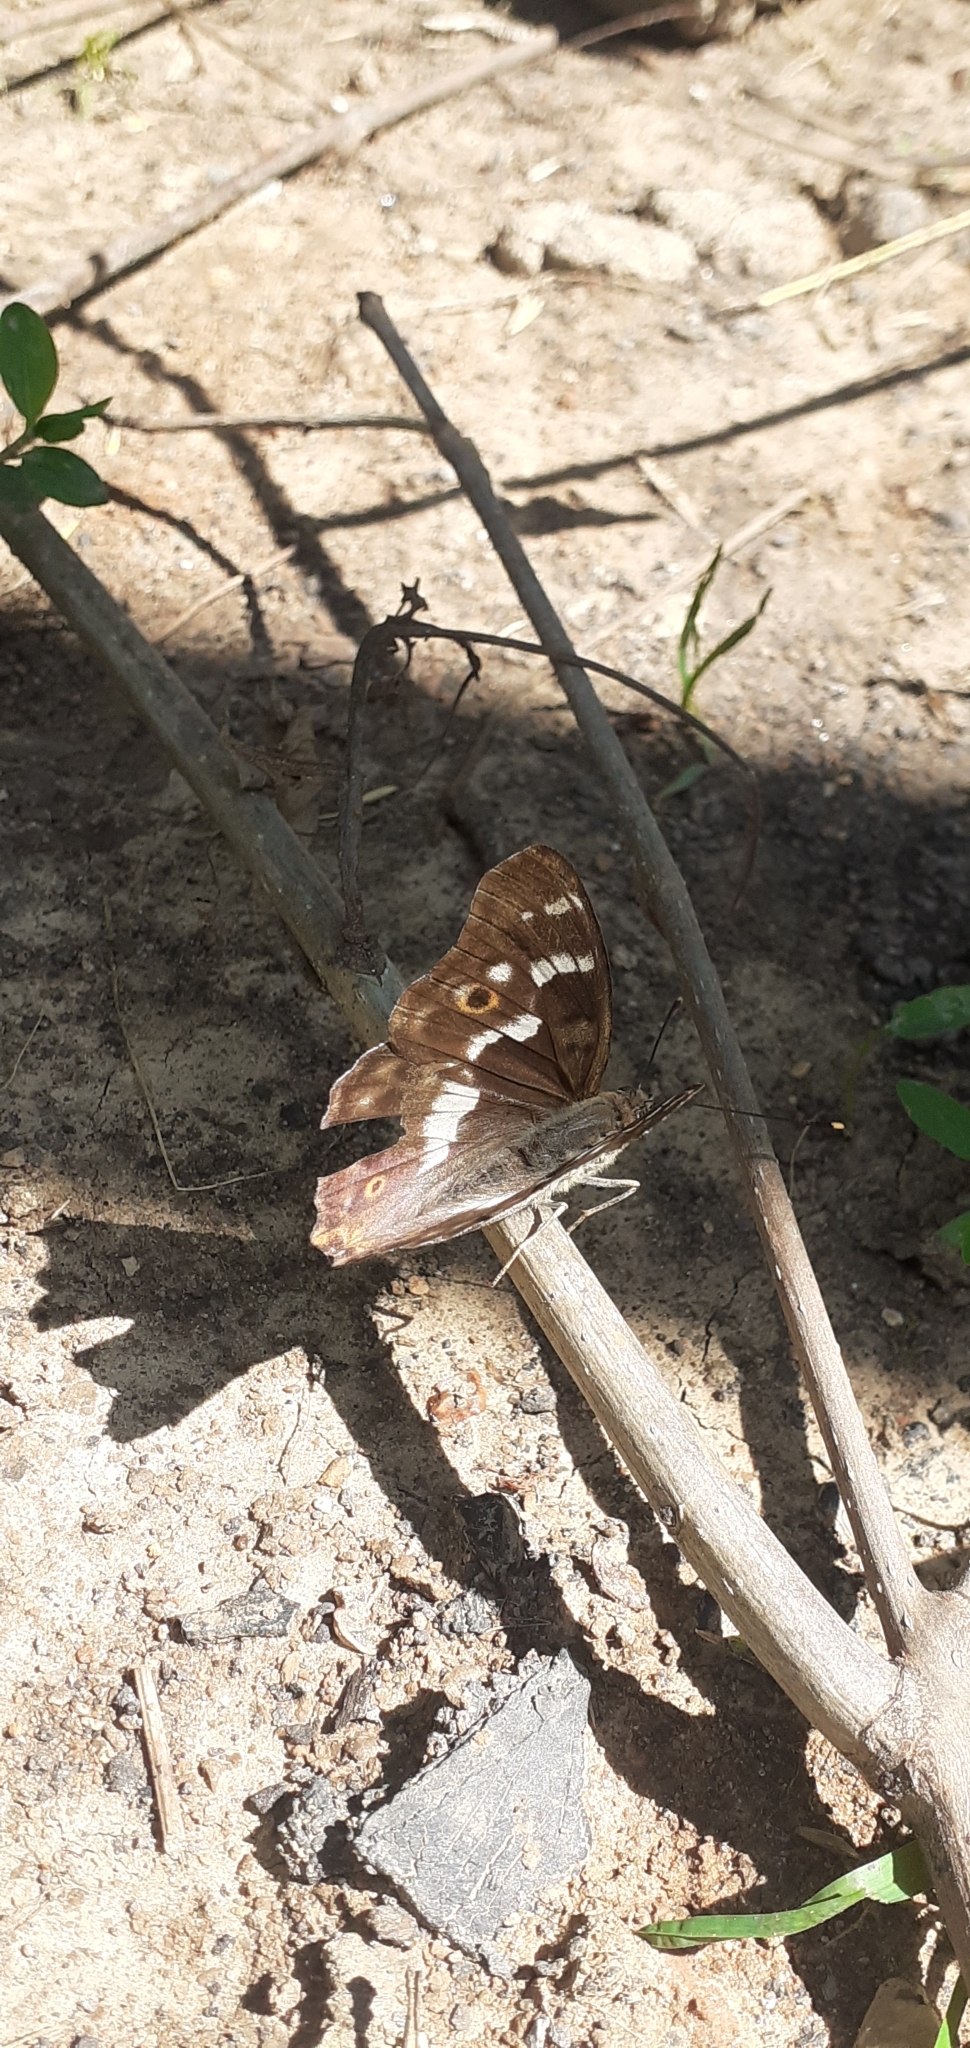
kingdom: Animalia
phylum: Arthropoda
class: Insecta
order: Lepidoptera
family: Nymphalidae
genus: Apatura
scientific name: Apatura ilia
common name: Lesser purple emperor
